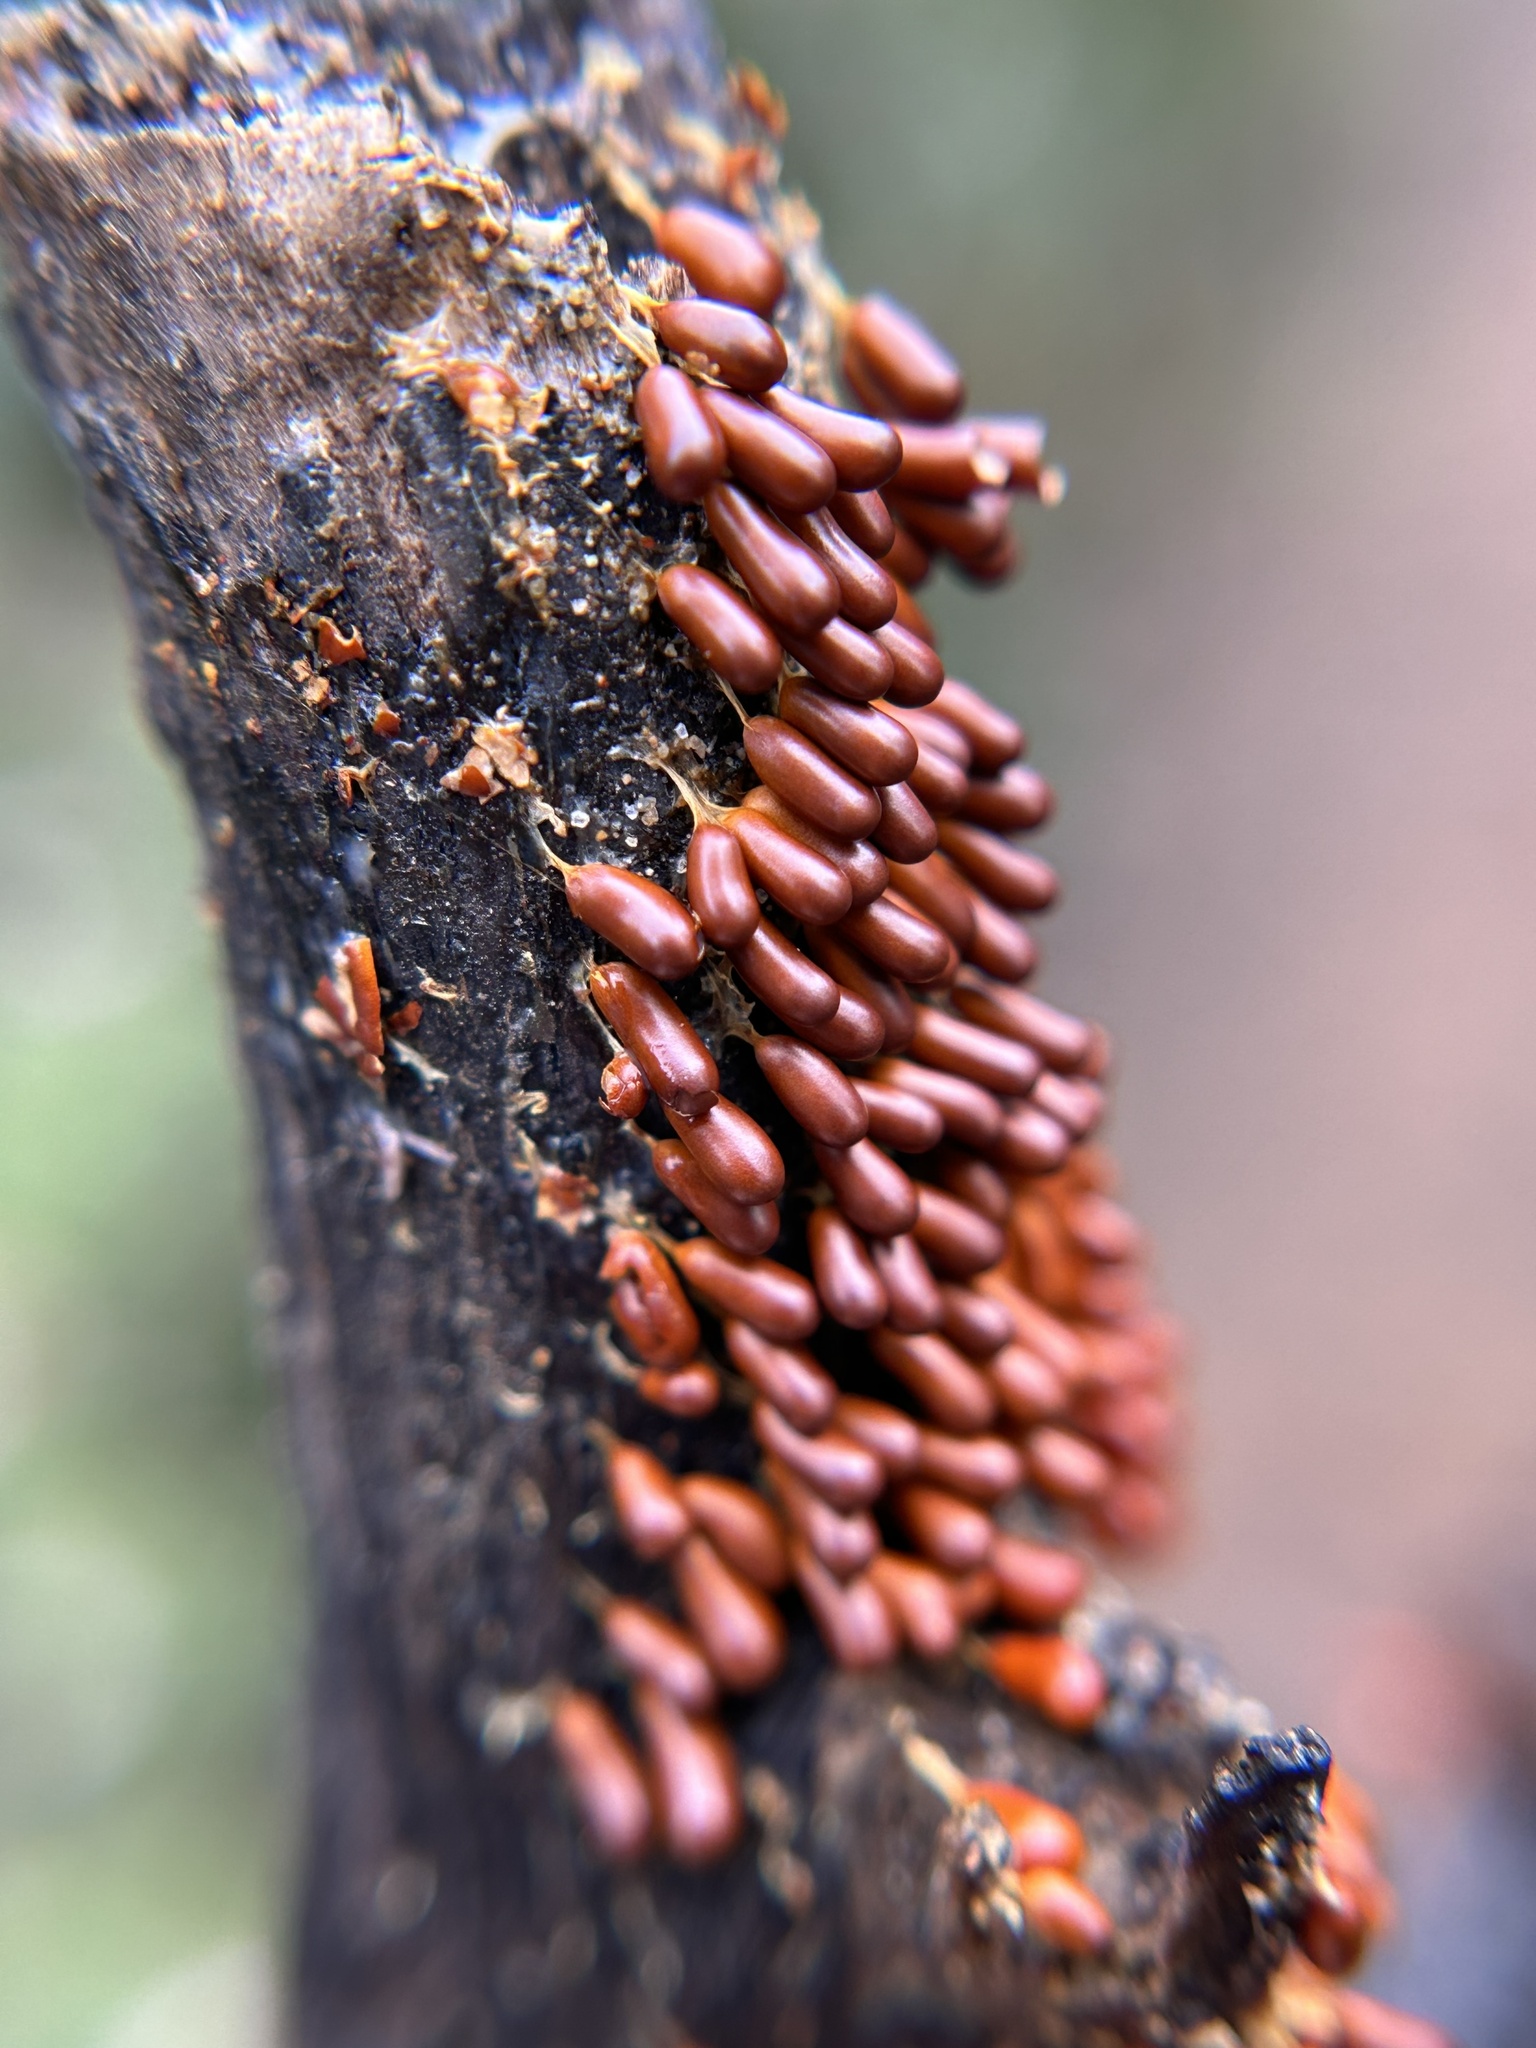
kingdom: Protozoa
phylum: Mycetozoa
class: Myxomycetes
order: Physarales
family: Physaraceae
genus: Leocarpus
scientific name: Leocarpus fragilis
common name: Insect-egg slime
